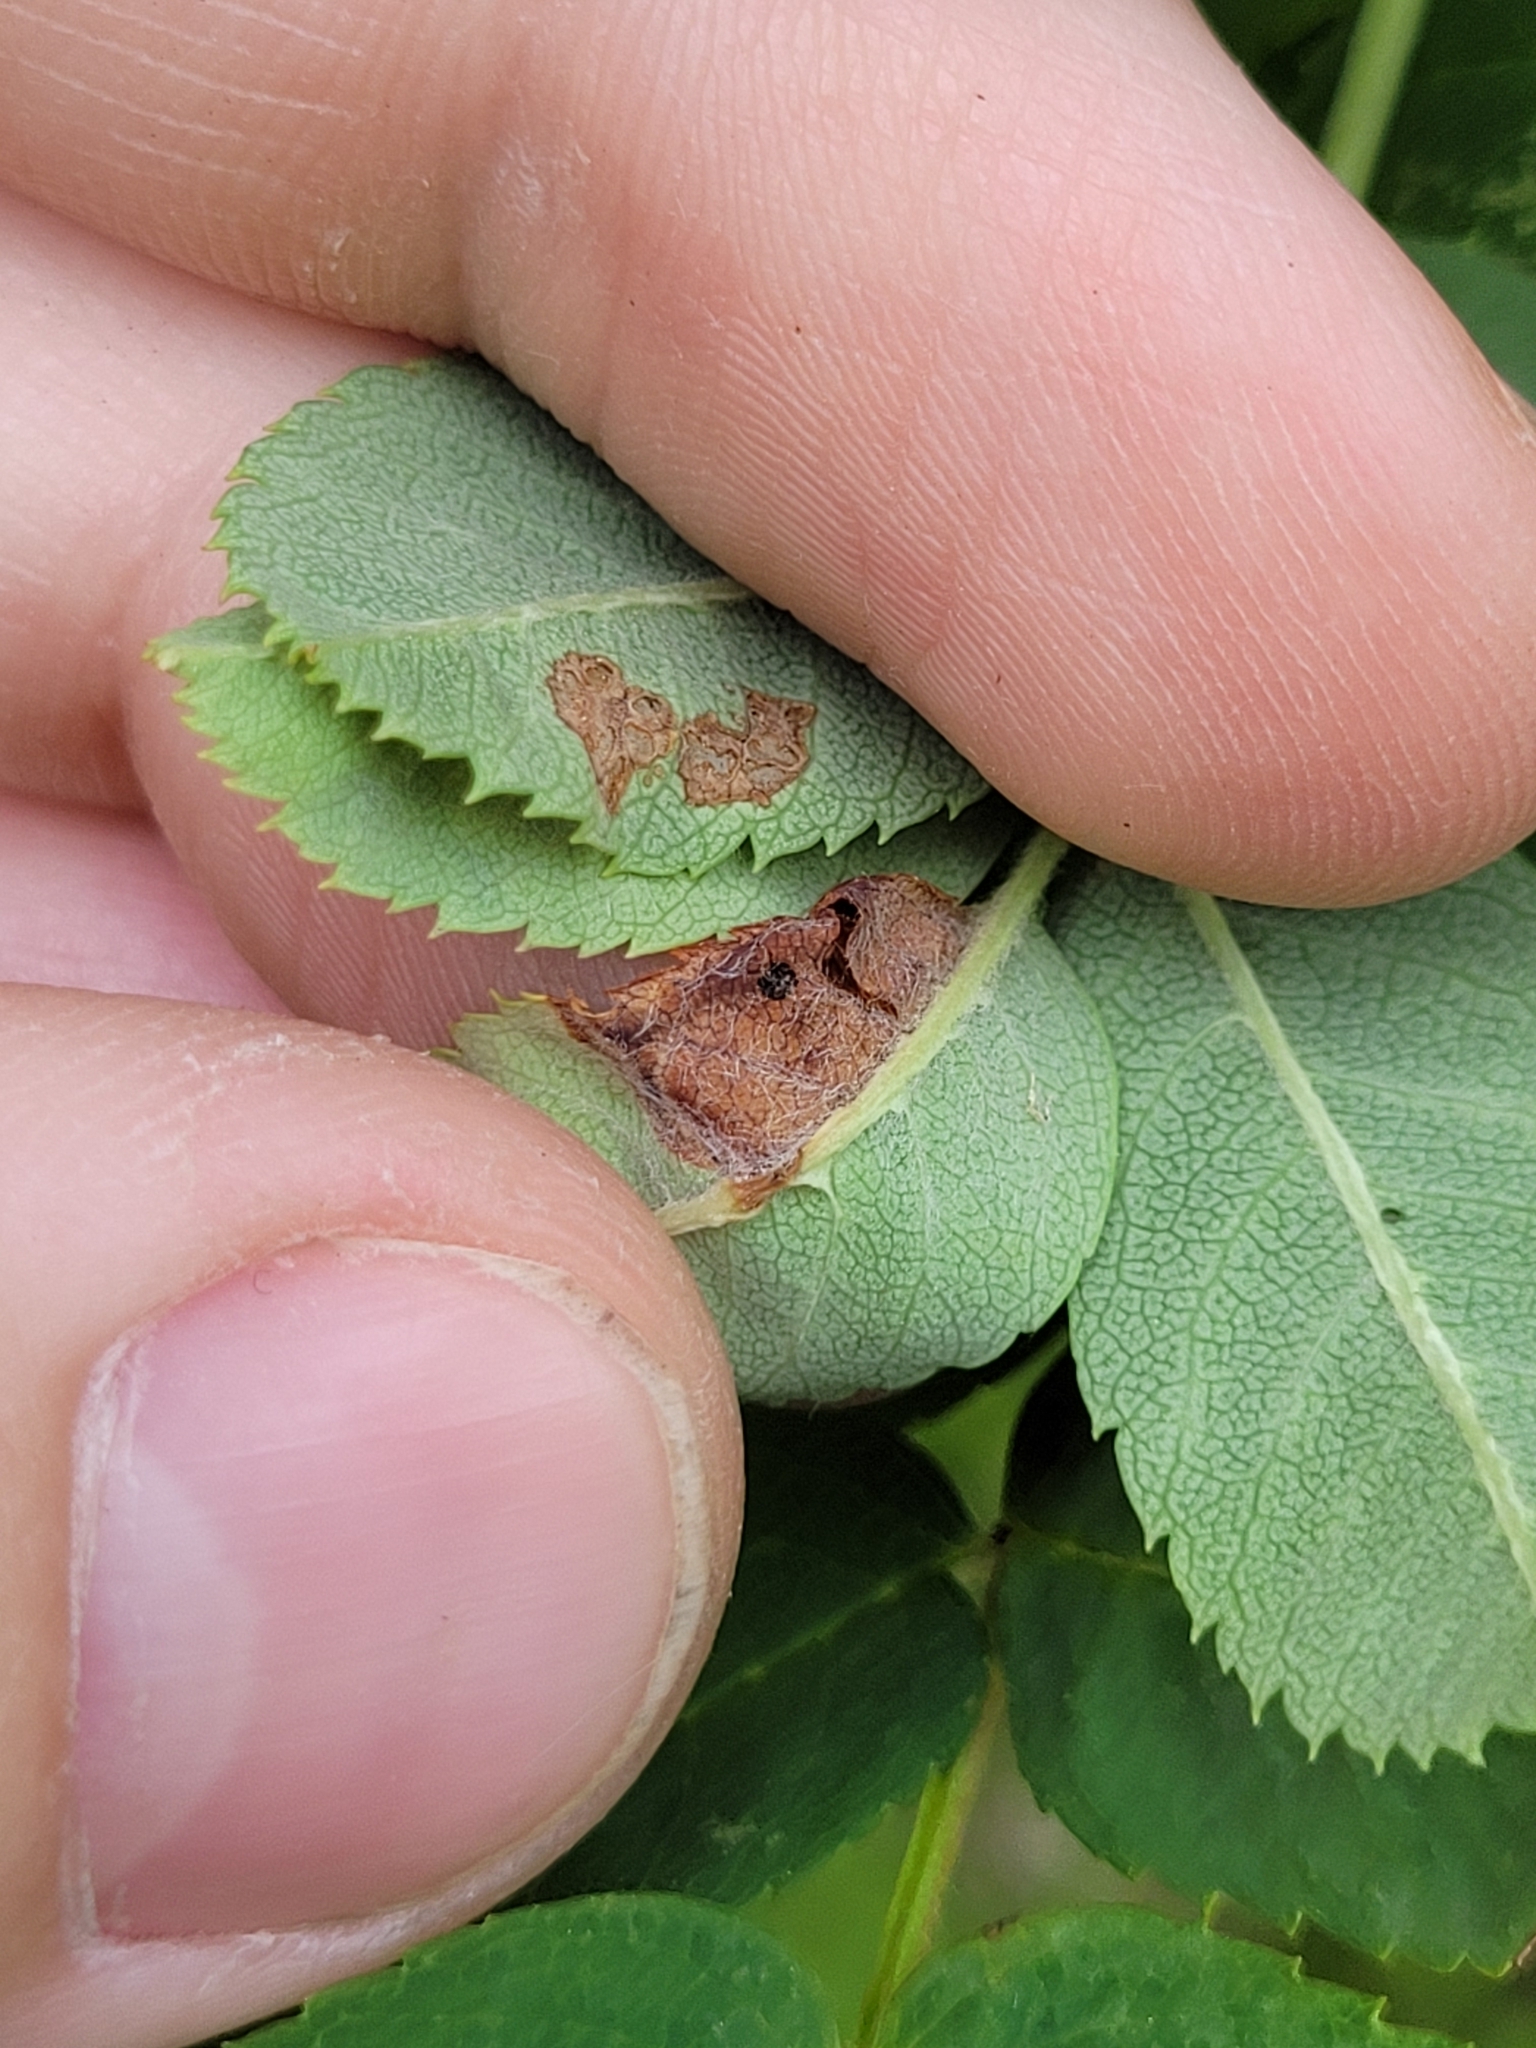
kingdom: Animalia
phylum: Arthropoda
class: Insecta
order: Coleoptera
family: Curculionidae
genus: Orchestes
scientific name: Orchestes pallicornis
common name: Apple-flea weevil
